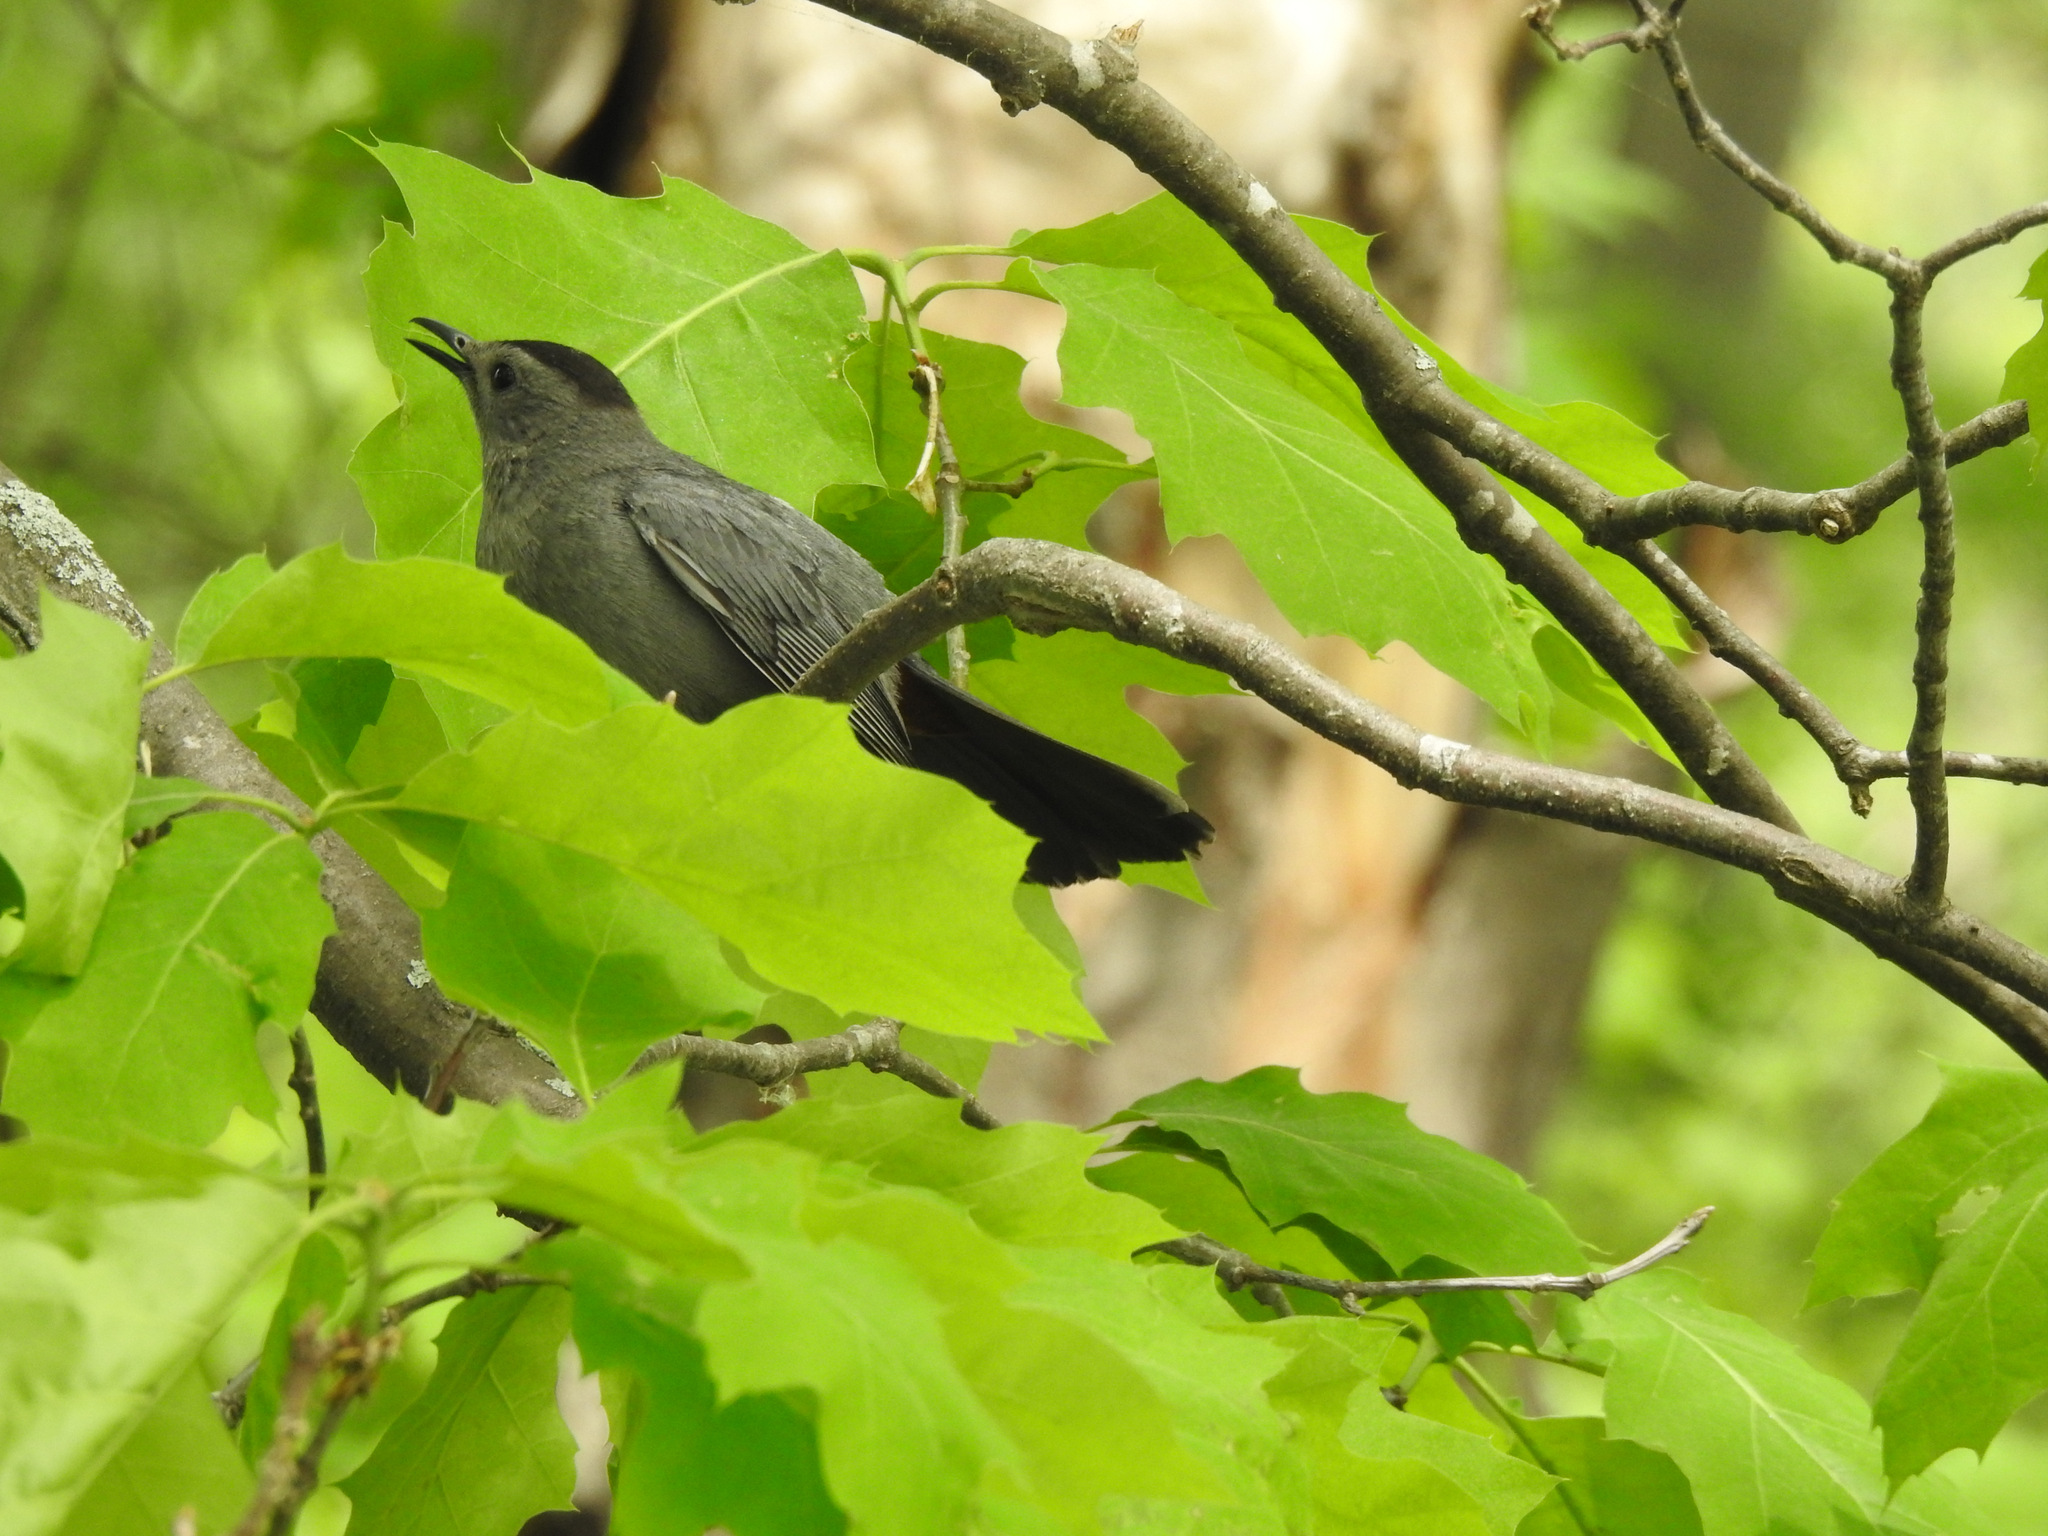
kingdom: Animalia
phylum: Chordata
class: Aves
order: Passeriformes
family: Mimidae
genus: Dumetella
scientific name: Dumetella carolinensis
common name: Gray catbird
